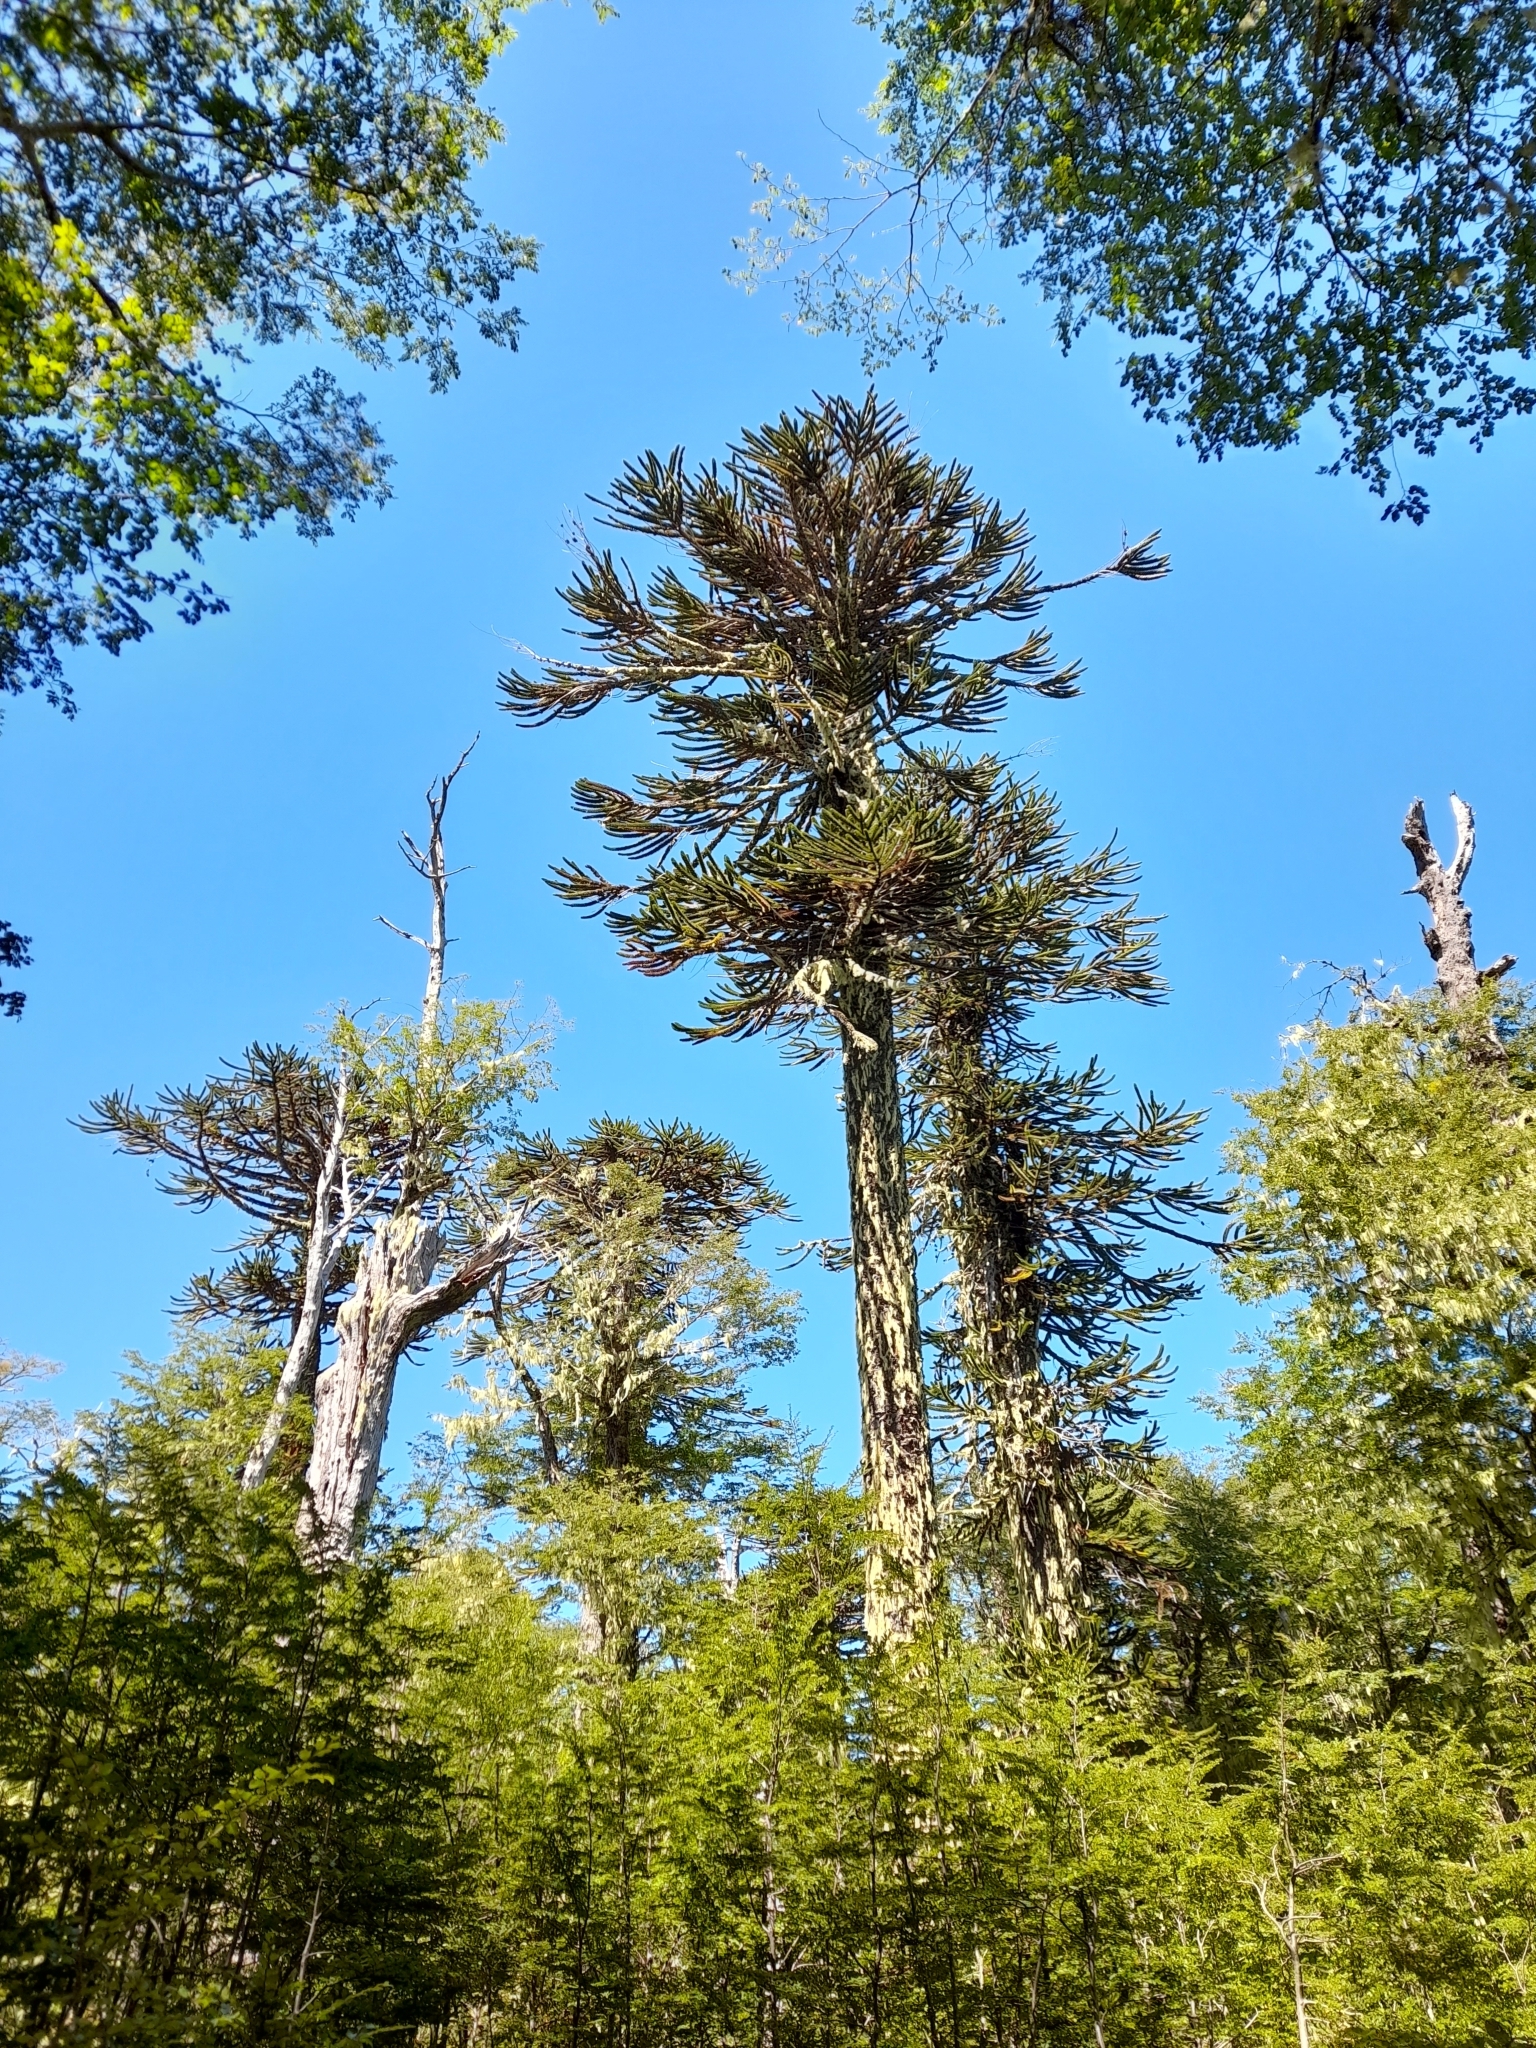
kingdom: Plantae
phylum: Tracheophyta
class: Pinopsida
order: Pinales
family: Araucariaceae
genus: Araucaria
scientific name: Araucaria araucana
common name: Monkey-puzzle
